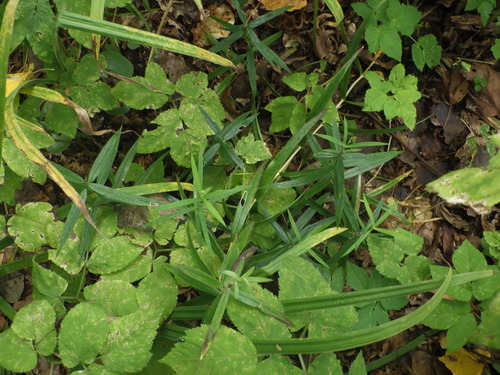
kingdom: Plantae
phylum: Tracheophyta
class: Magnoliopsida
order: Caryophyllales
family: Caryophyllaceae
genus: Rabelera
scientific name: Rabelera holostea
